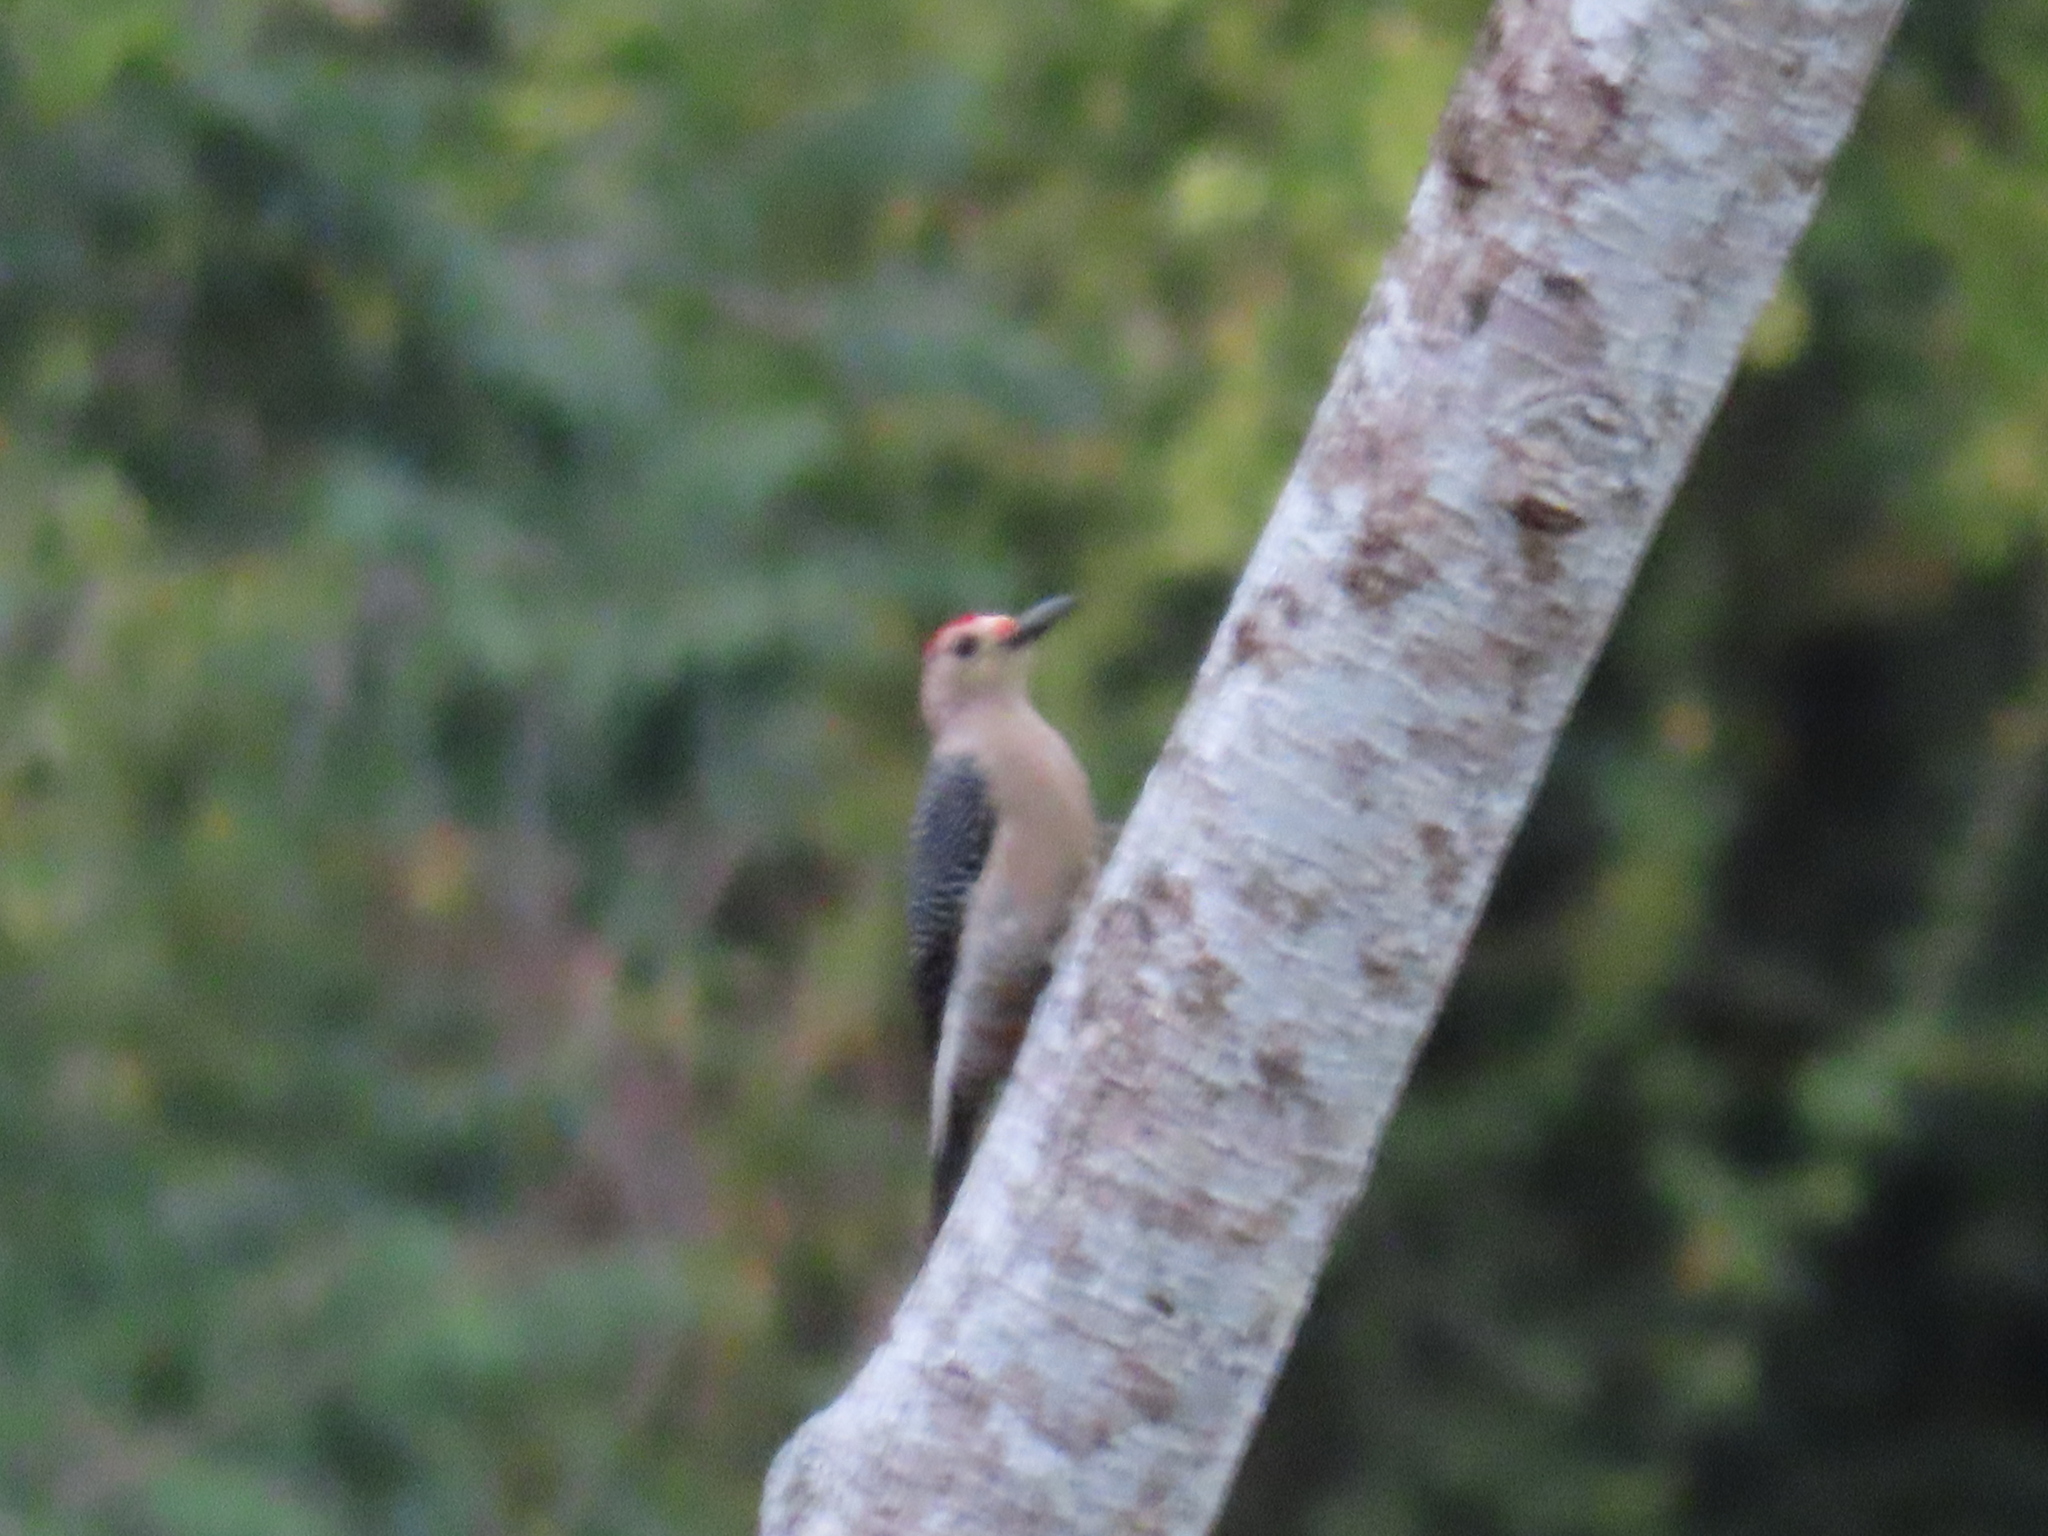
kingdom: Animalia
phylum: Chordata
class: Aves
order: Piciformes
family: Picidae
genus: Melanerpes
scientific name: Melanerpes aurifrons
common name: Golden-fronted woodpecker
